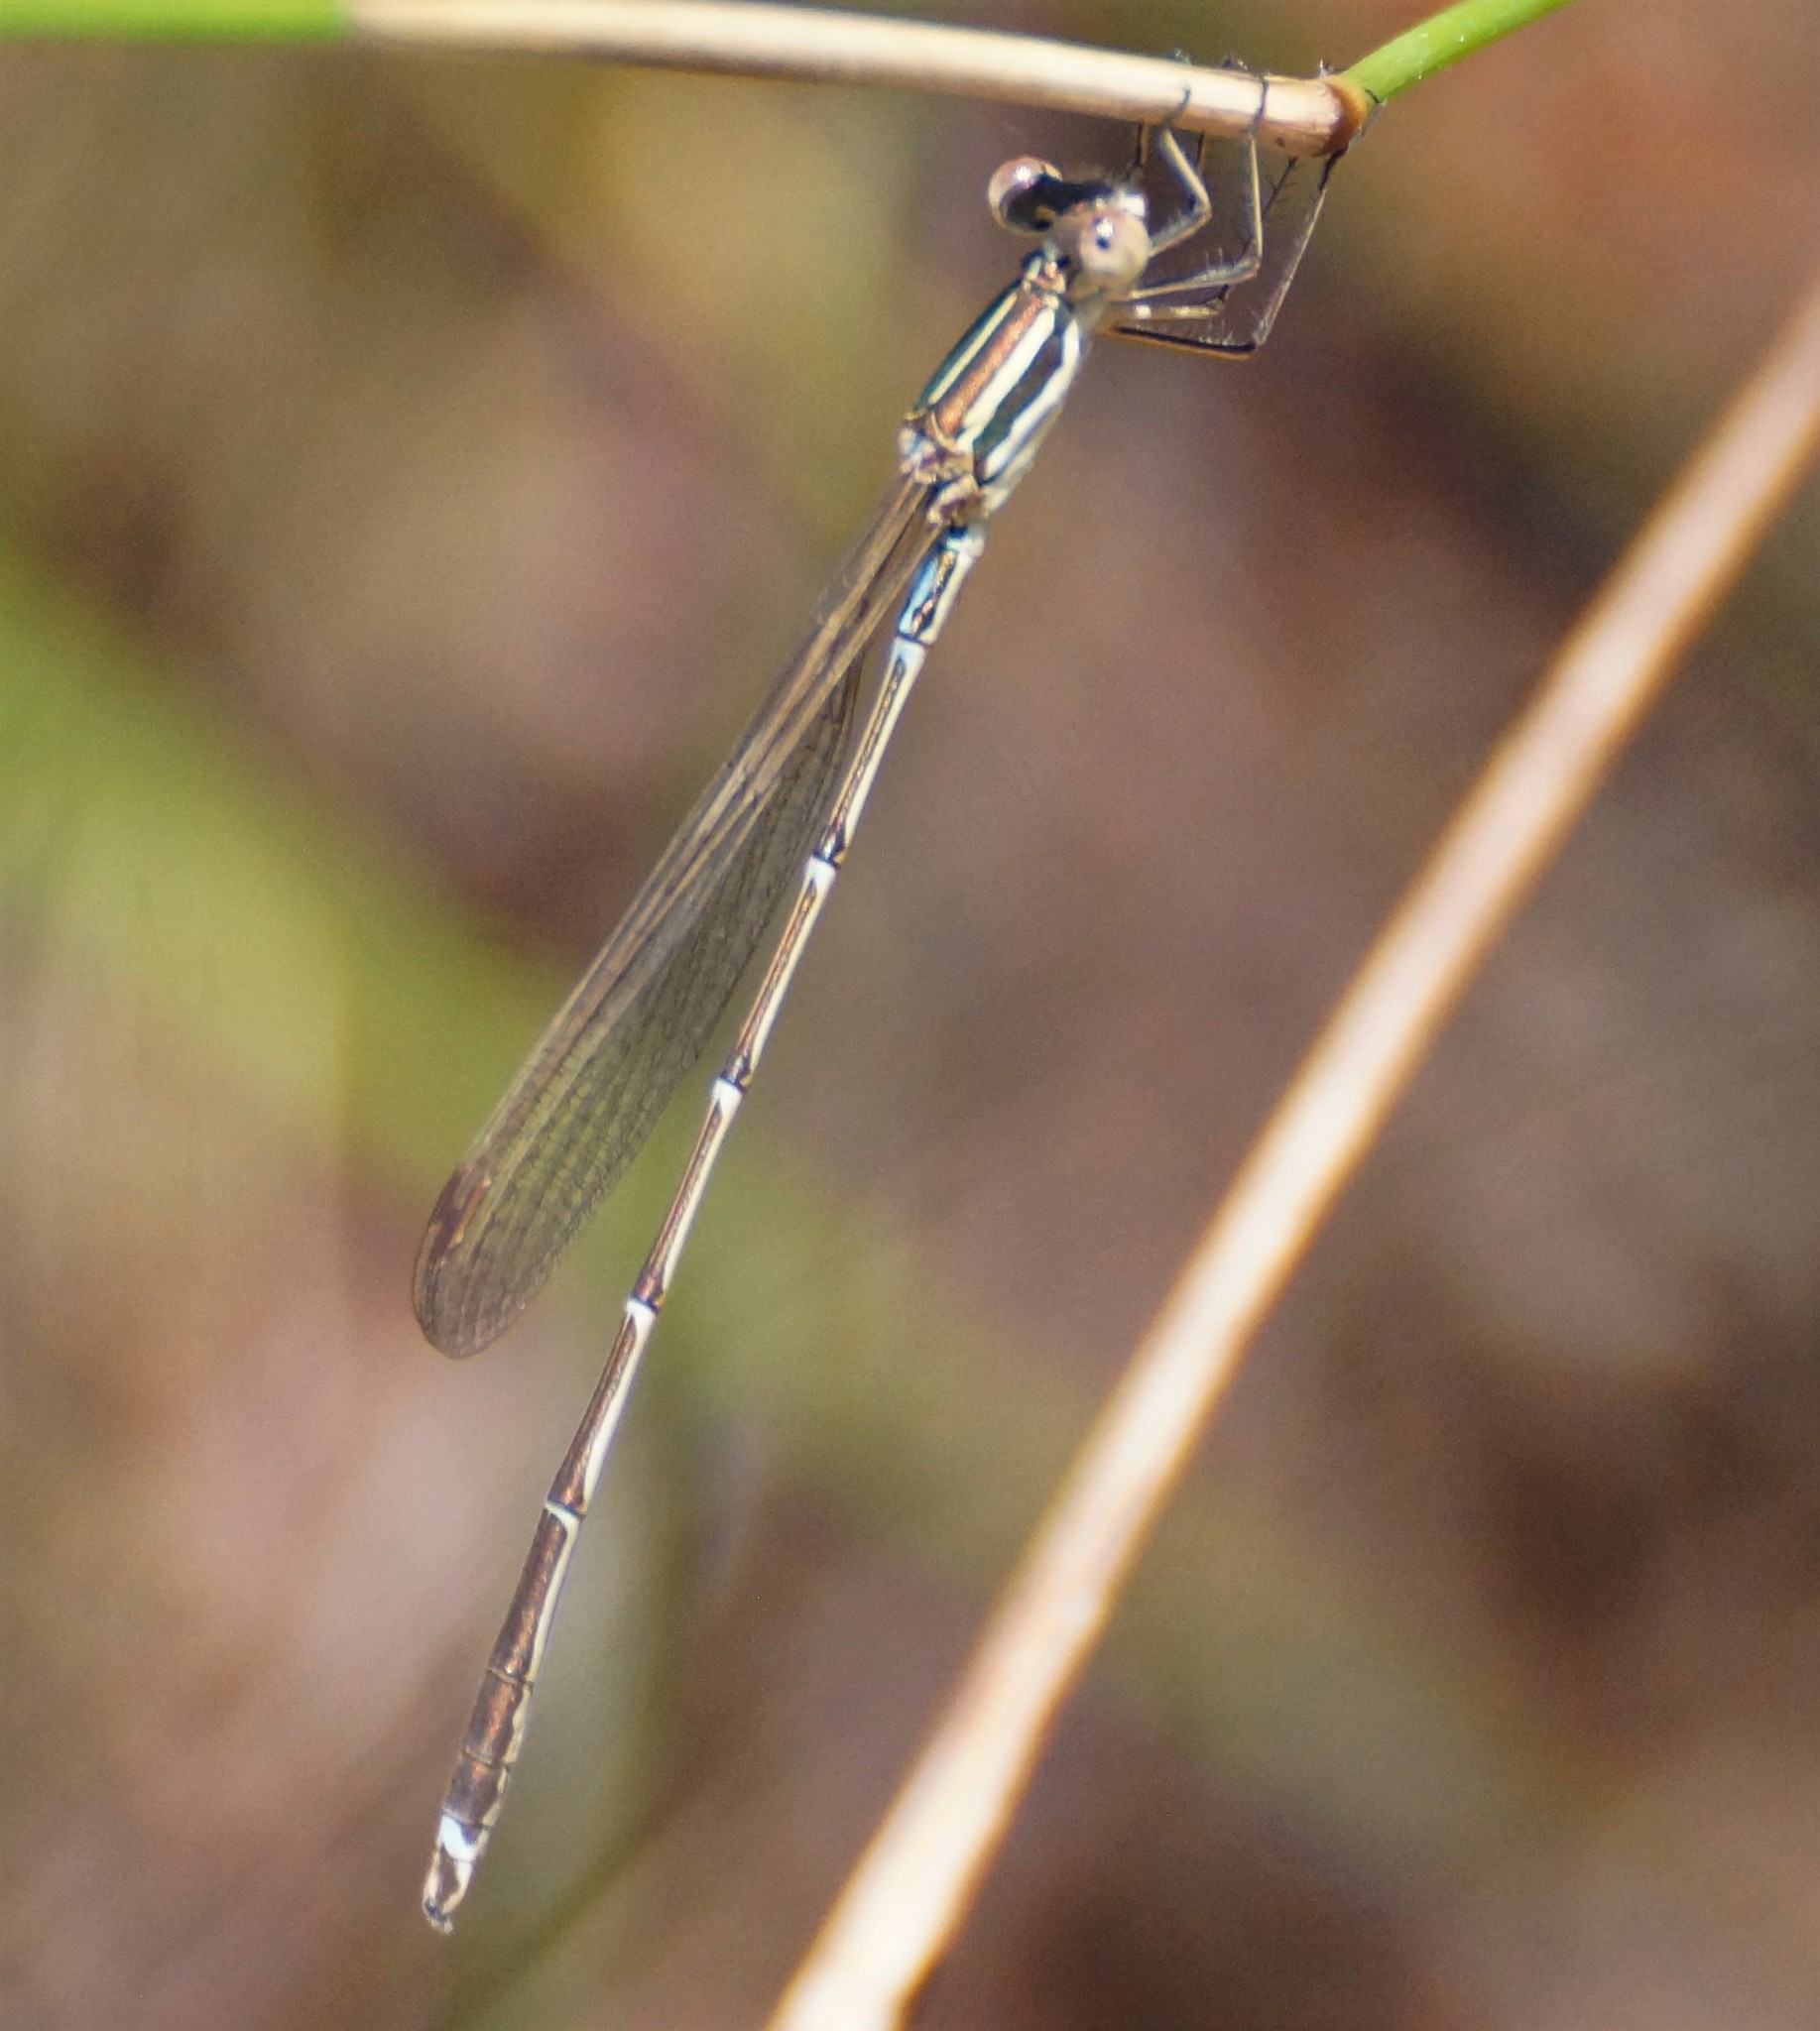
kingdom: Animalia
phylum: Arthropoda
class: Insecta
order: Odonata
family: Lestidae
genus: Austrolestes
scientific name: Austrolestes analis
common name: Slender ringtail
